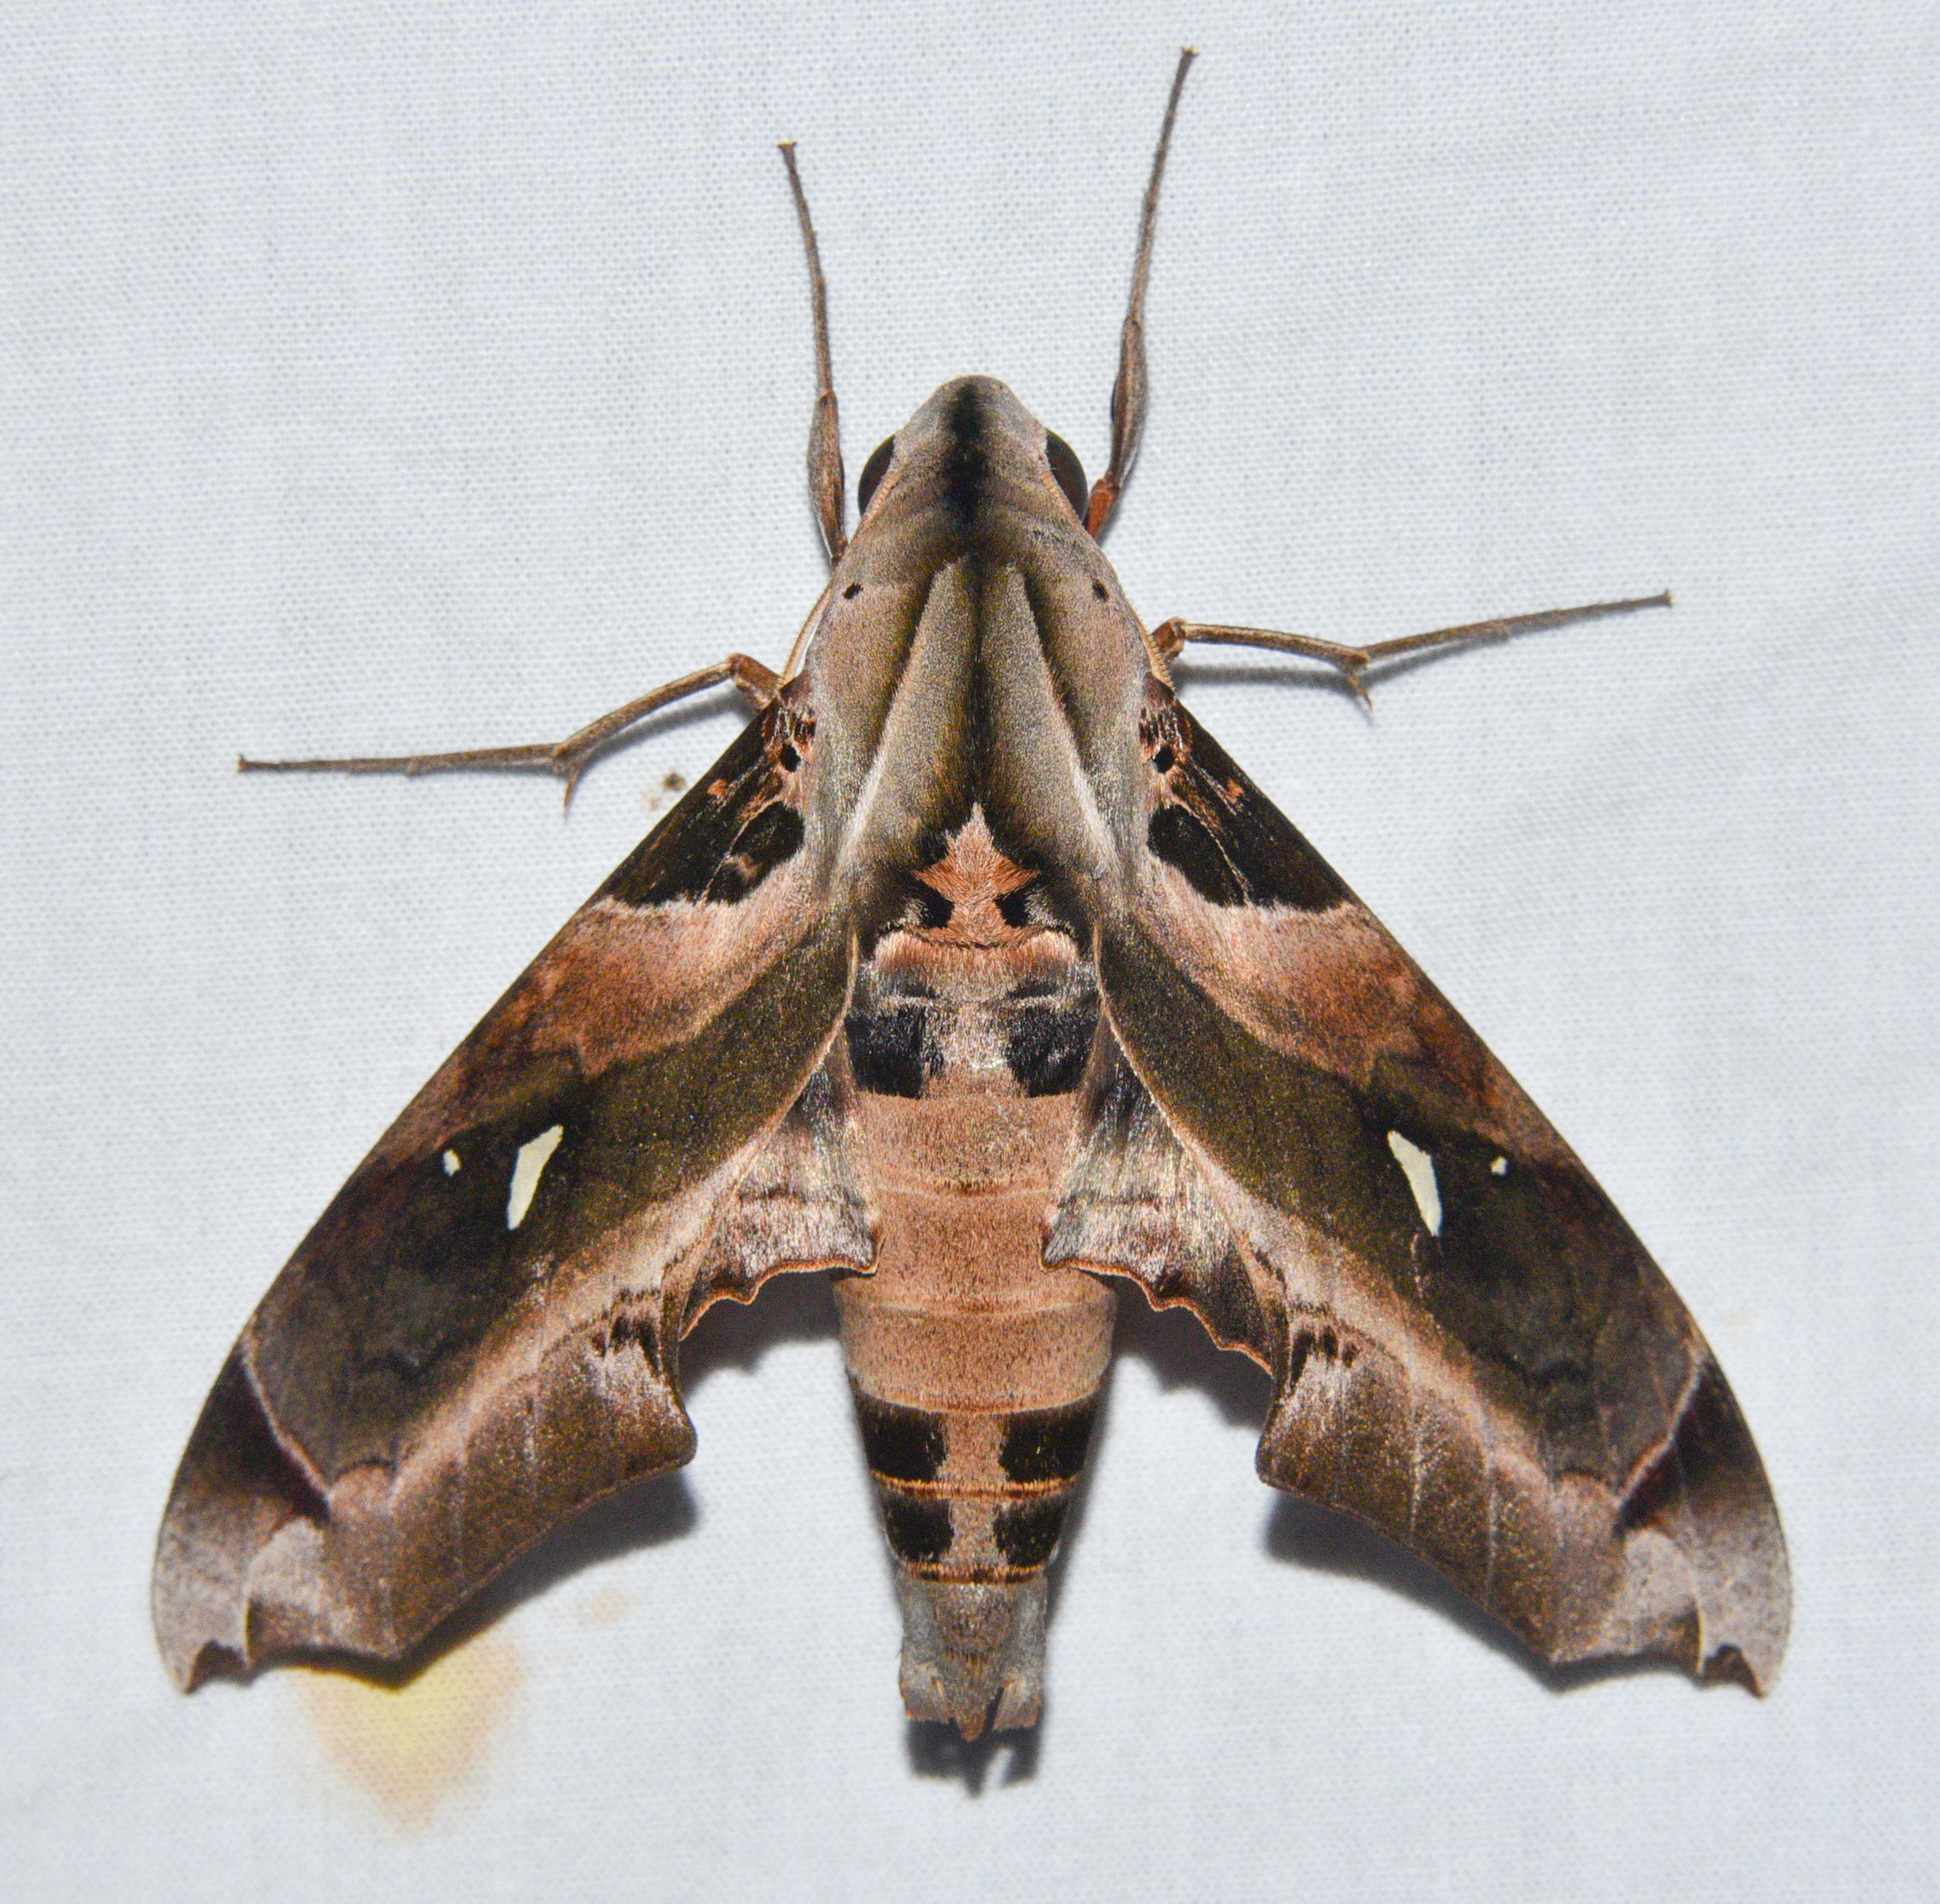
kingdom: Animalia
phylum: Arthropoda
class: Insecta
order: Lepidoptera
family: Sphingidae
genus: Madoryx
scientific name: Madoryx plutonius
